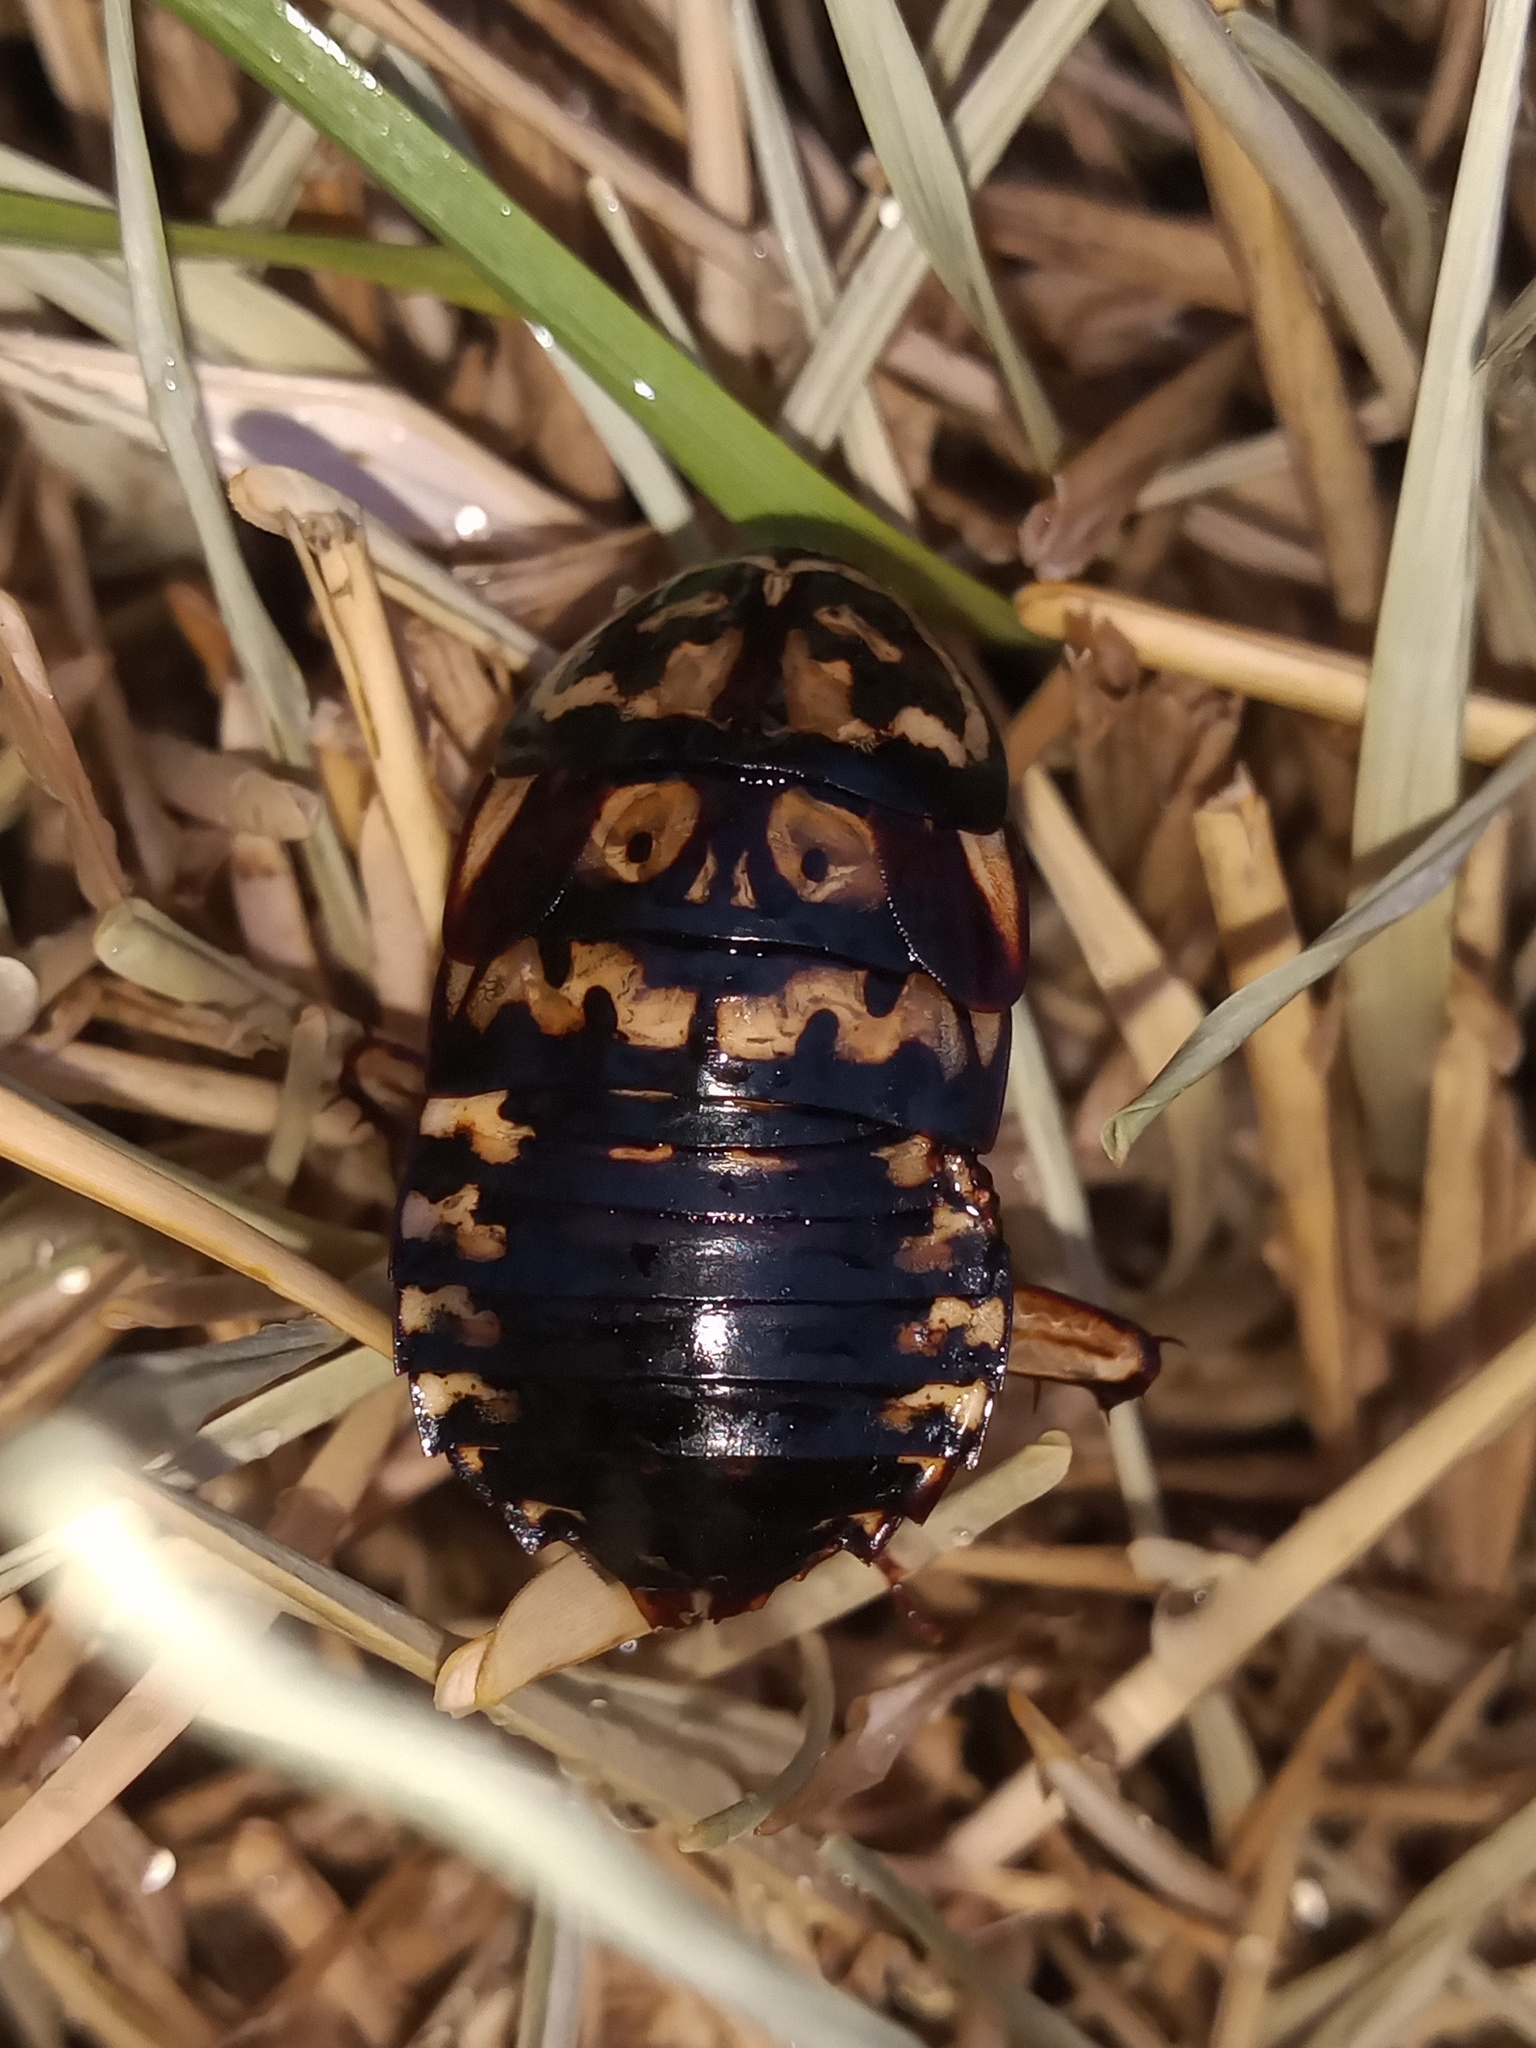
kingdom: Animalia
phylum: Arthropoda
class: Insecta
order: Blattodea
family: Blattidae
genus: Neostylopyga
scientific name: Neostylopyga rhombifolia
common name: Harlequin cockroach
